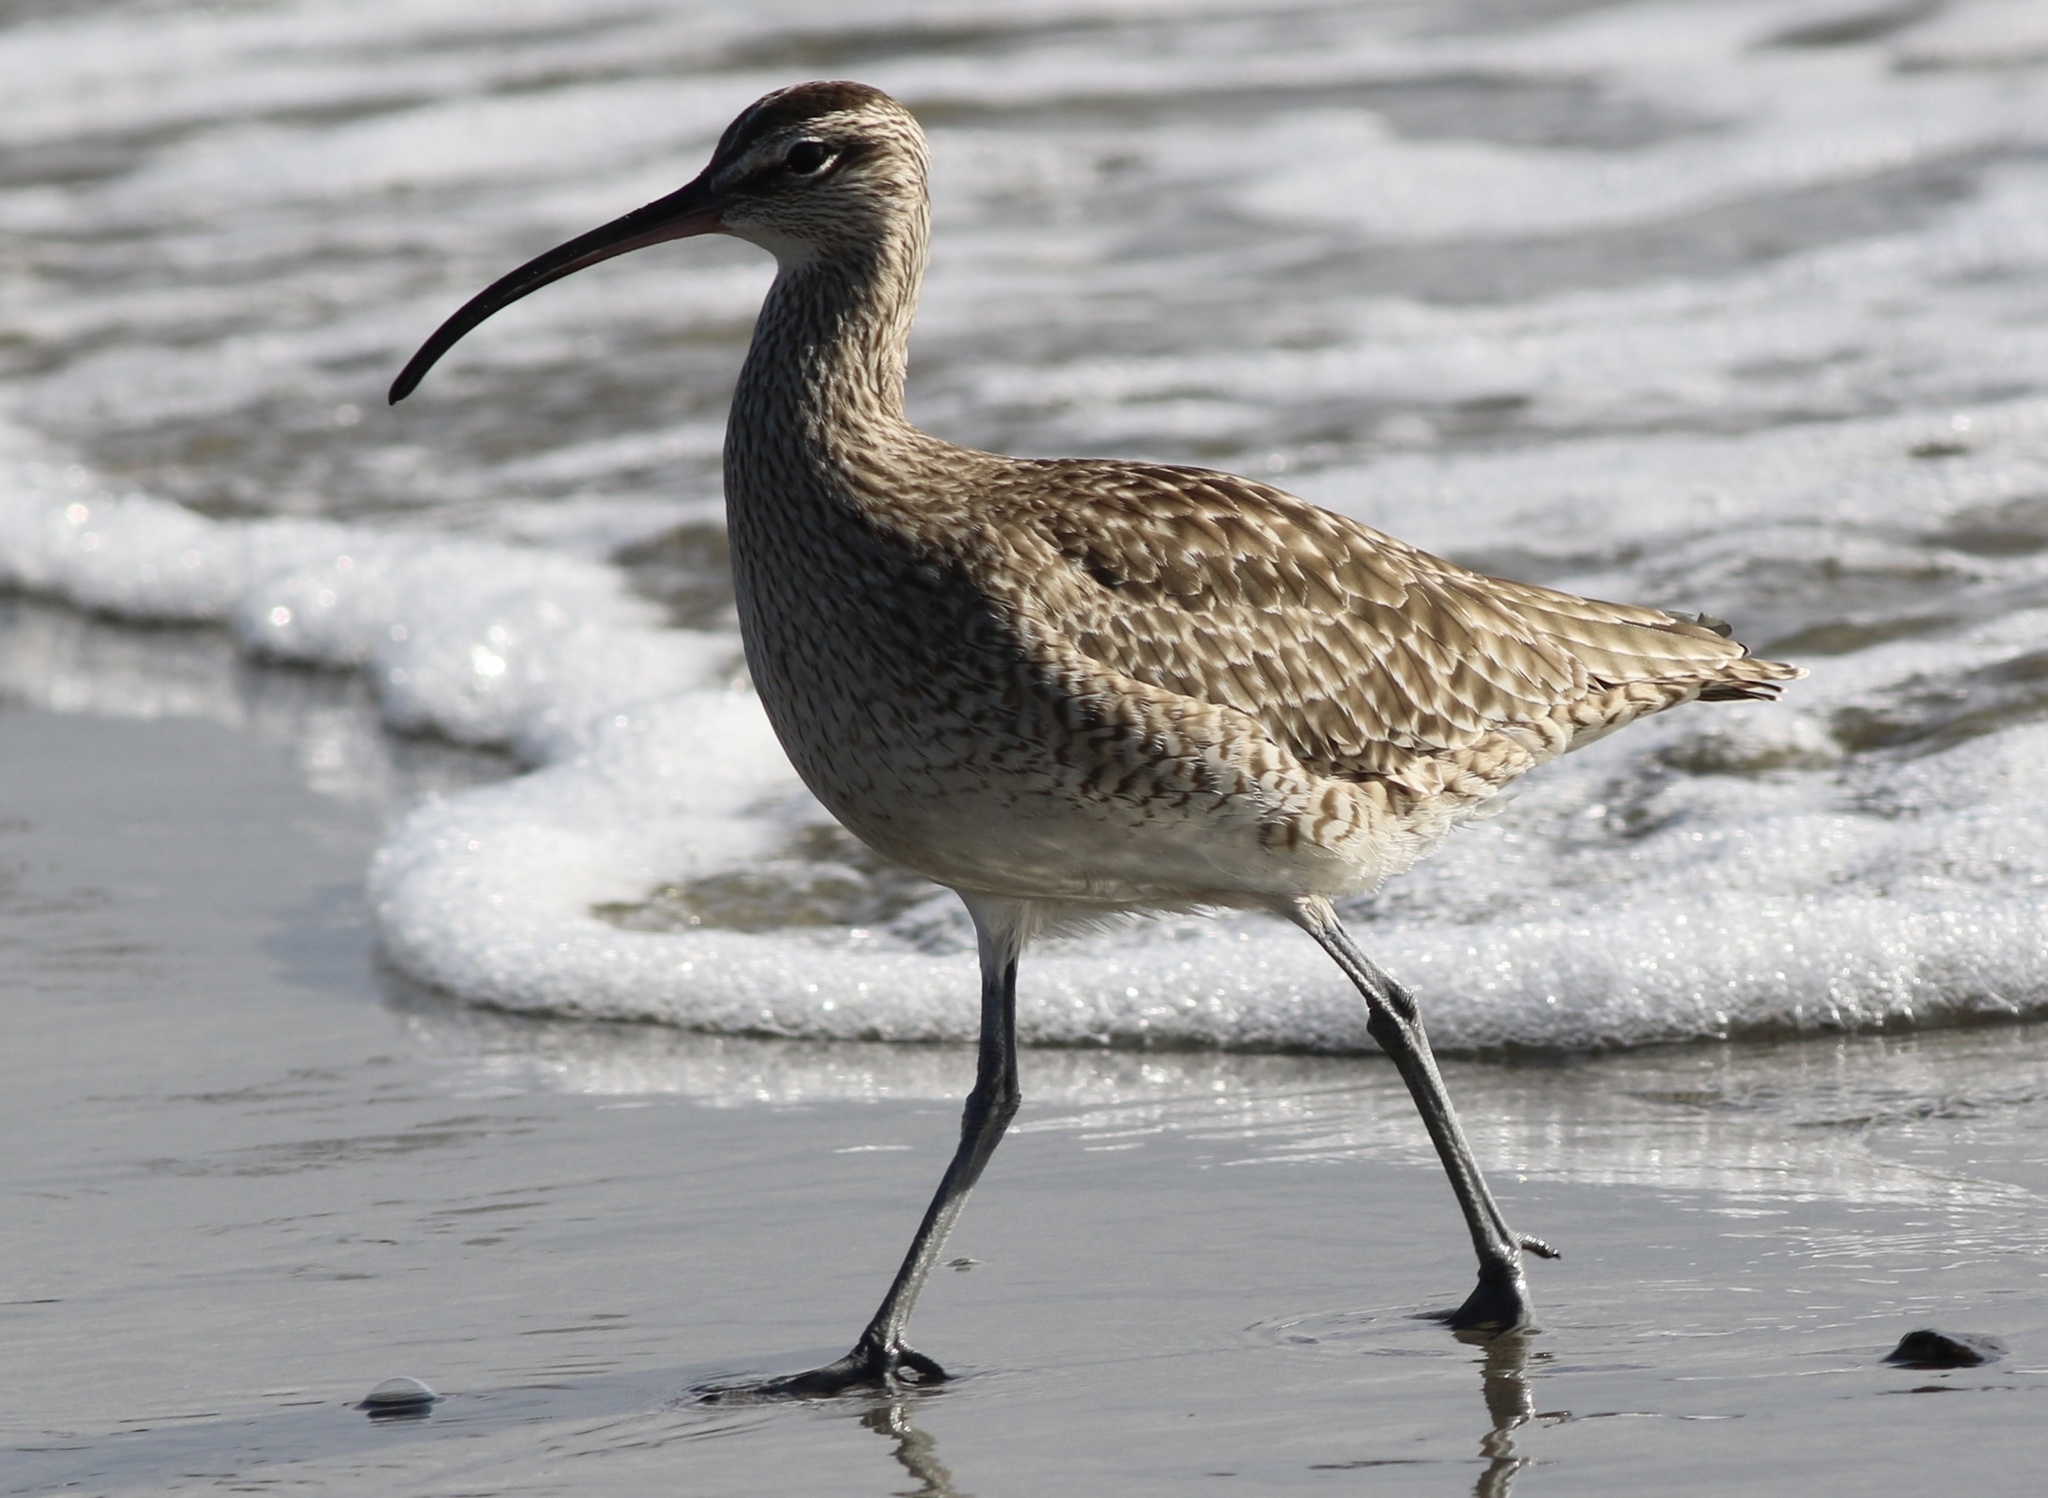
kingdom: Animalia
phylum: Chordata
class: Aves
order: Charadriiformes
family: Scolopacidae
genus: Numenius
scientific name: Numenius phaeopus
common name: Whimbrel
